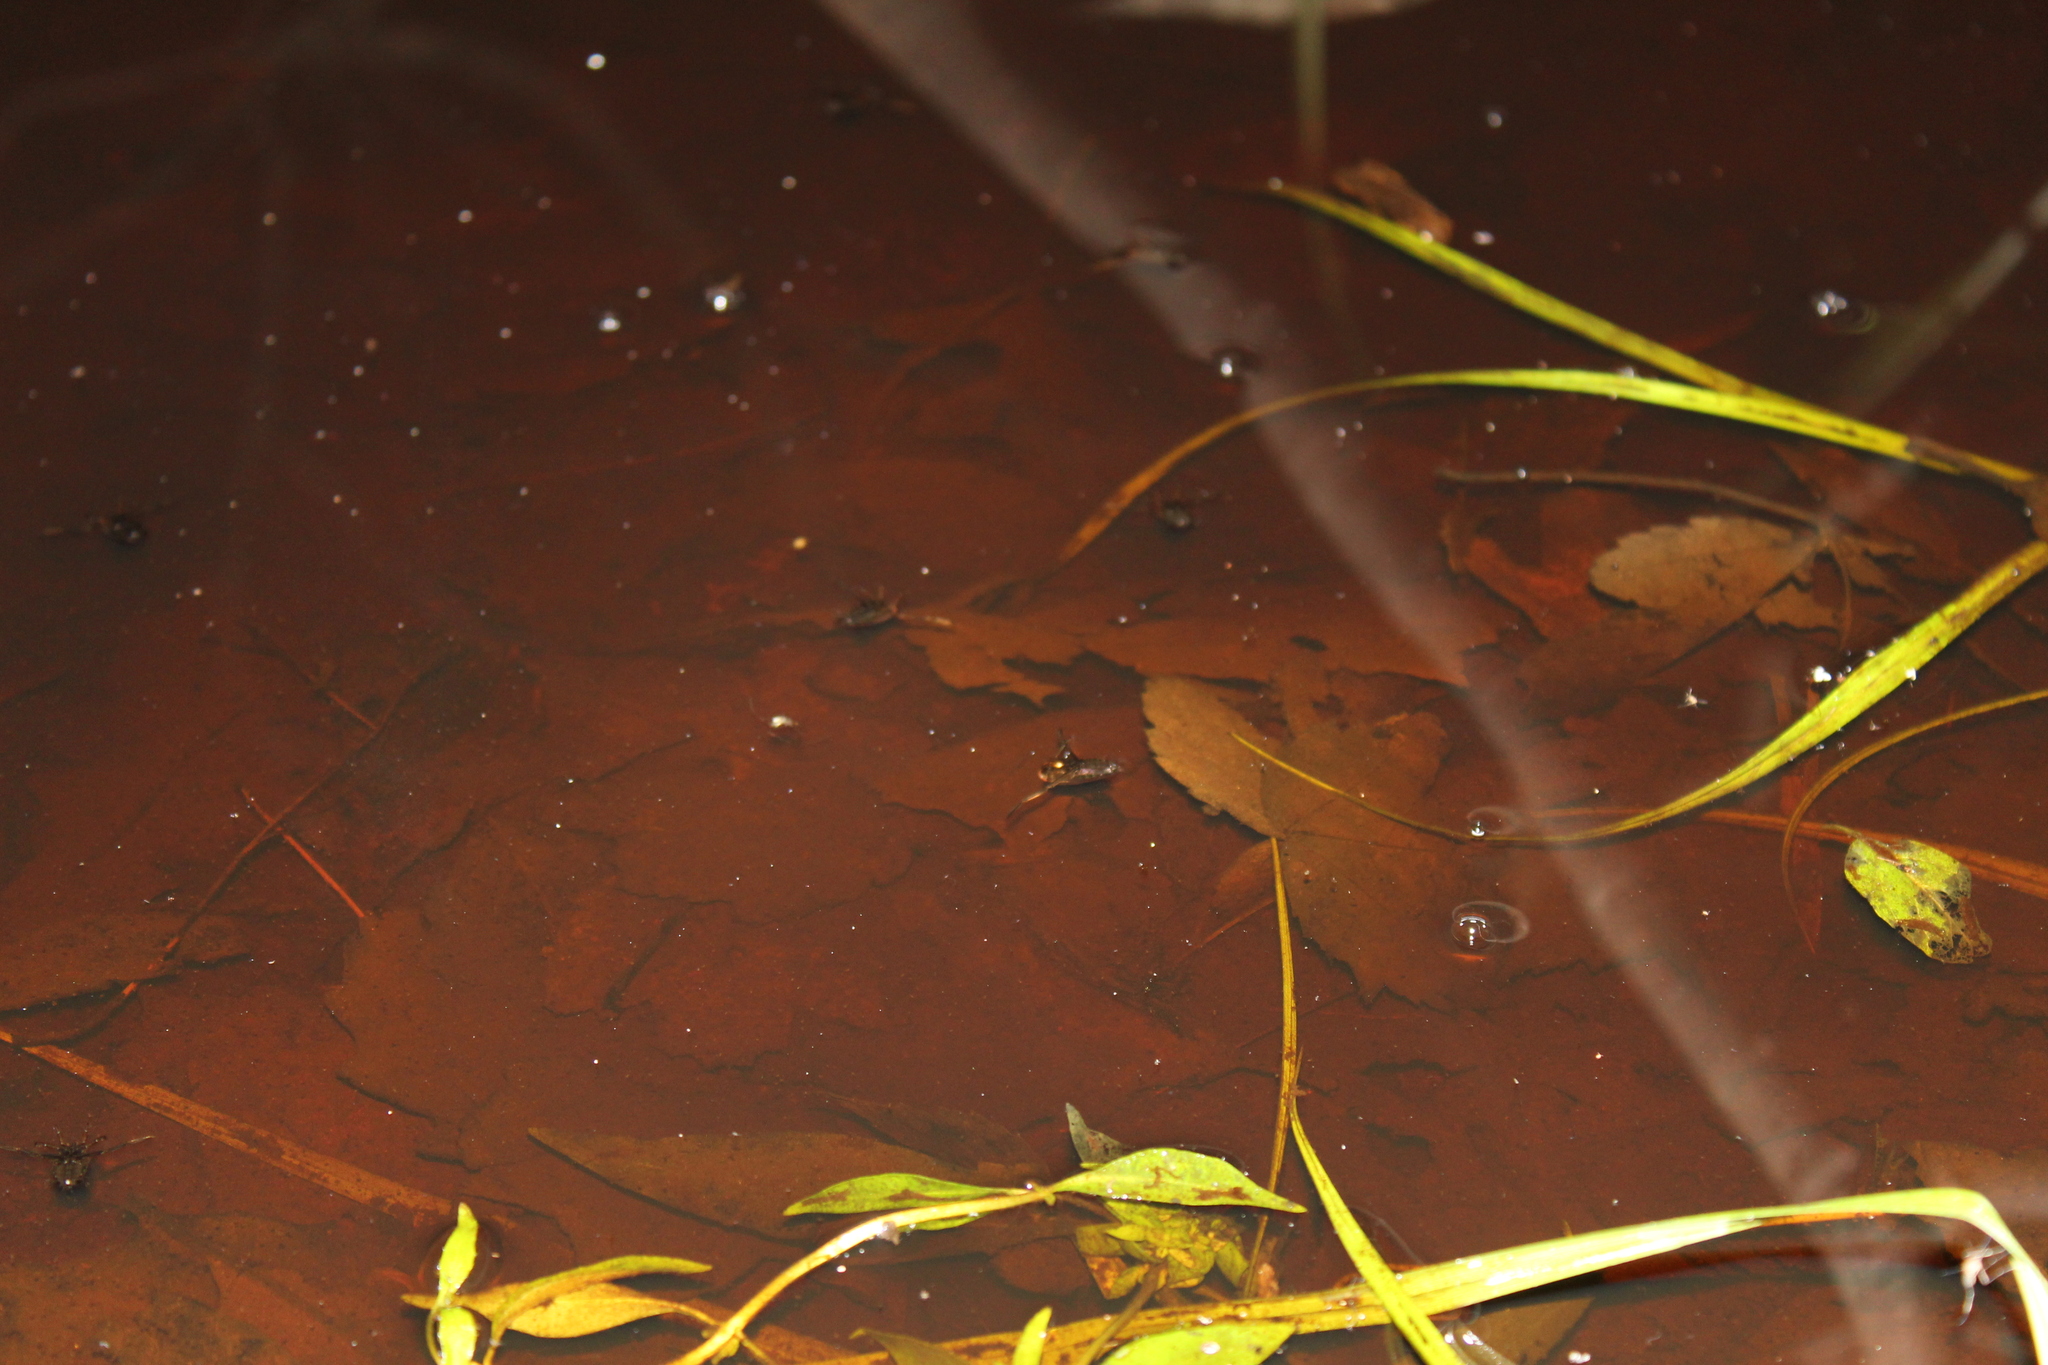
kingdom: Animalia
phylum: Arthropoda
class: Insecta
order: Hemiptera
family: Notonectidae
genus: Notonecta
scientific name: Notonecta
